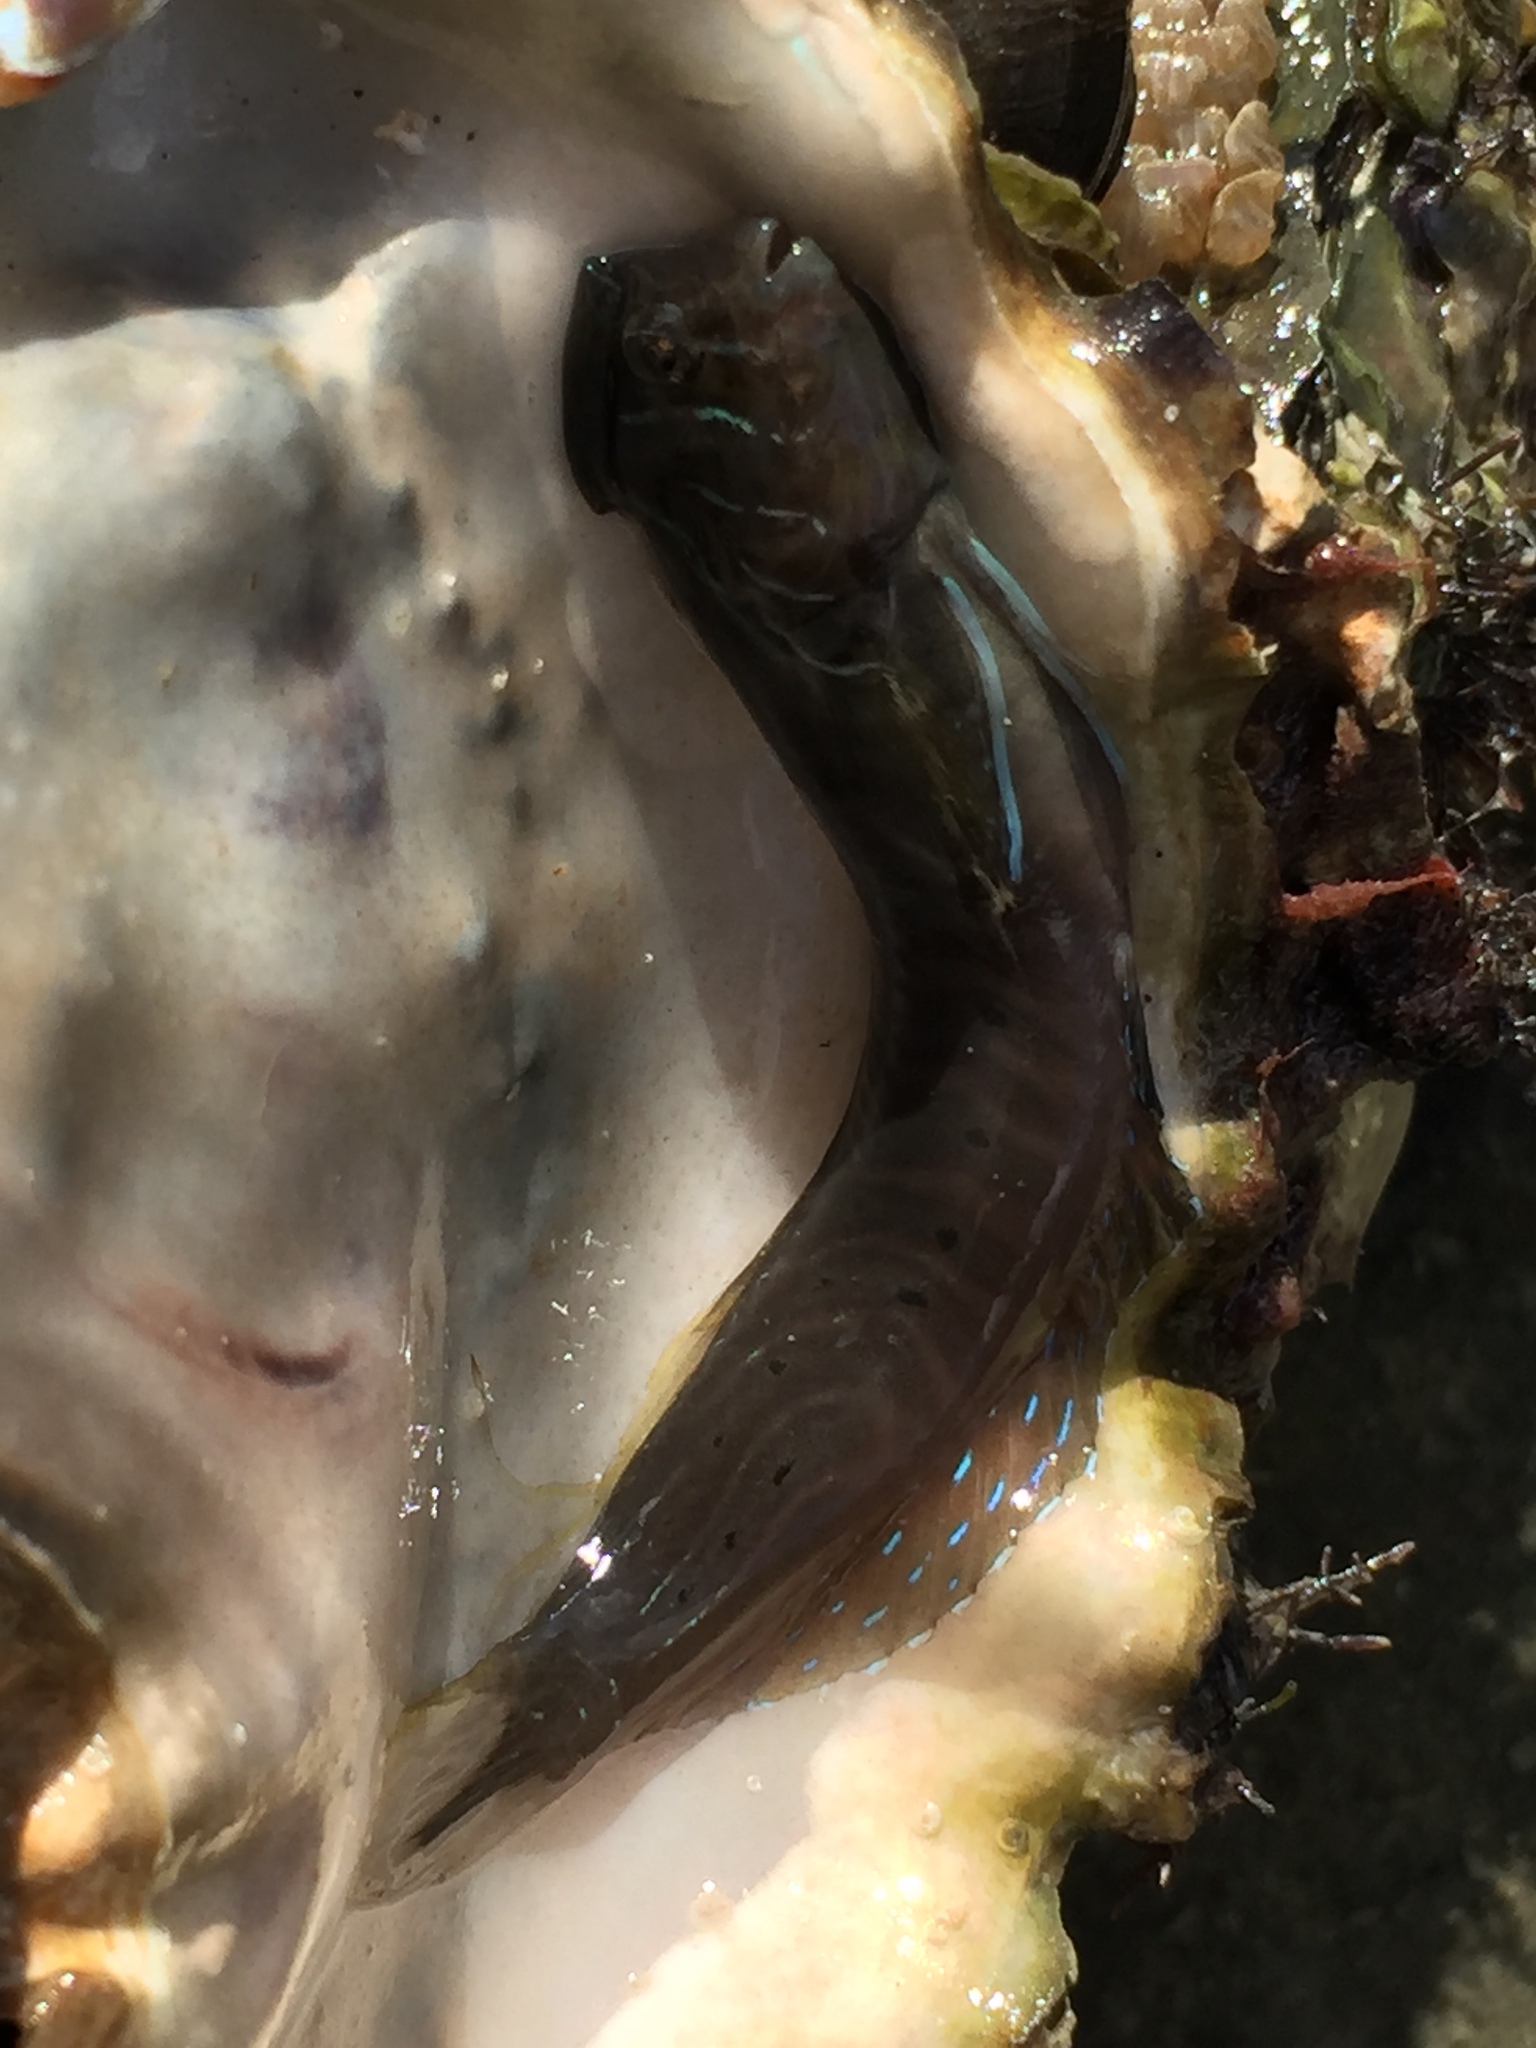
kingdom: Animalia
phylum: Chordata
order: Perciformes
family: Blenniidae
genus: Omobranchus
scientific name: Omobranchus anolius
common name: Oyster blenny
